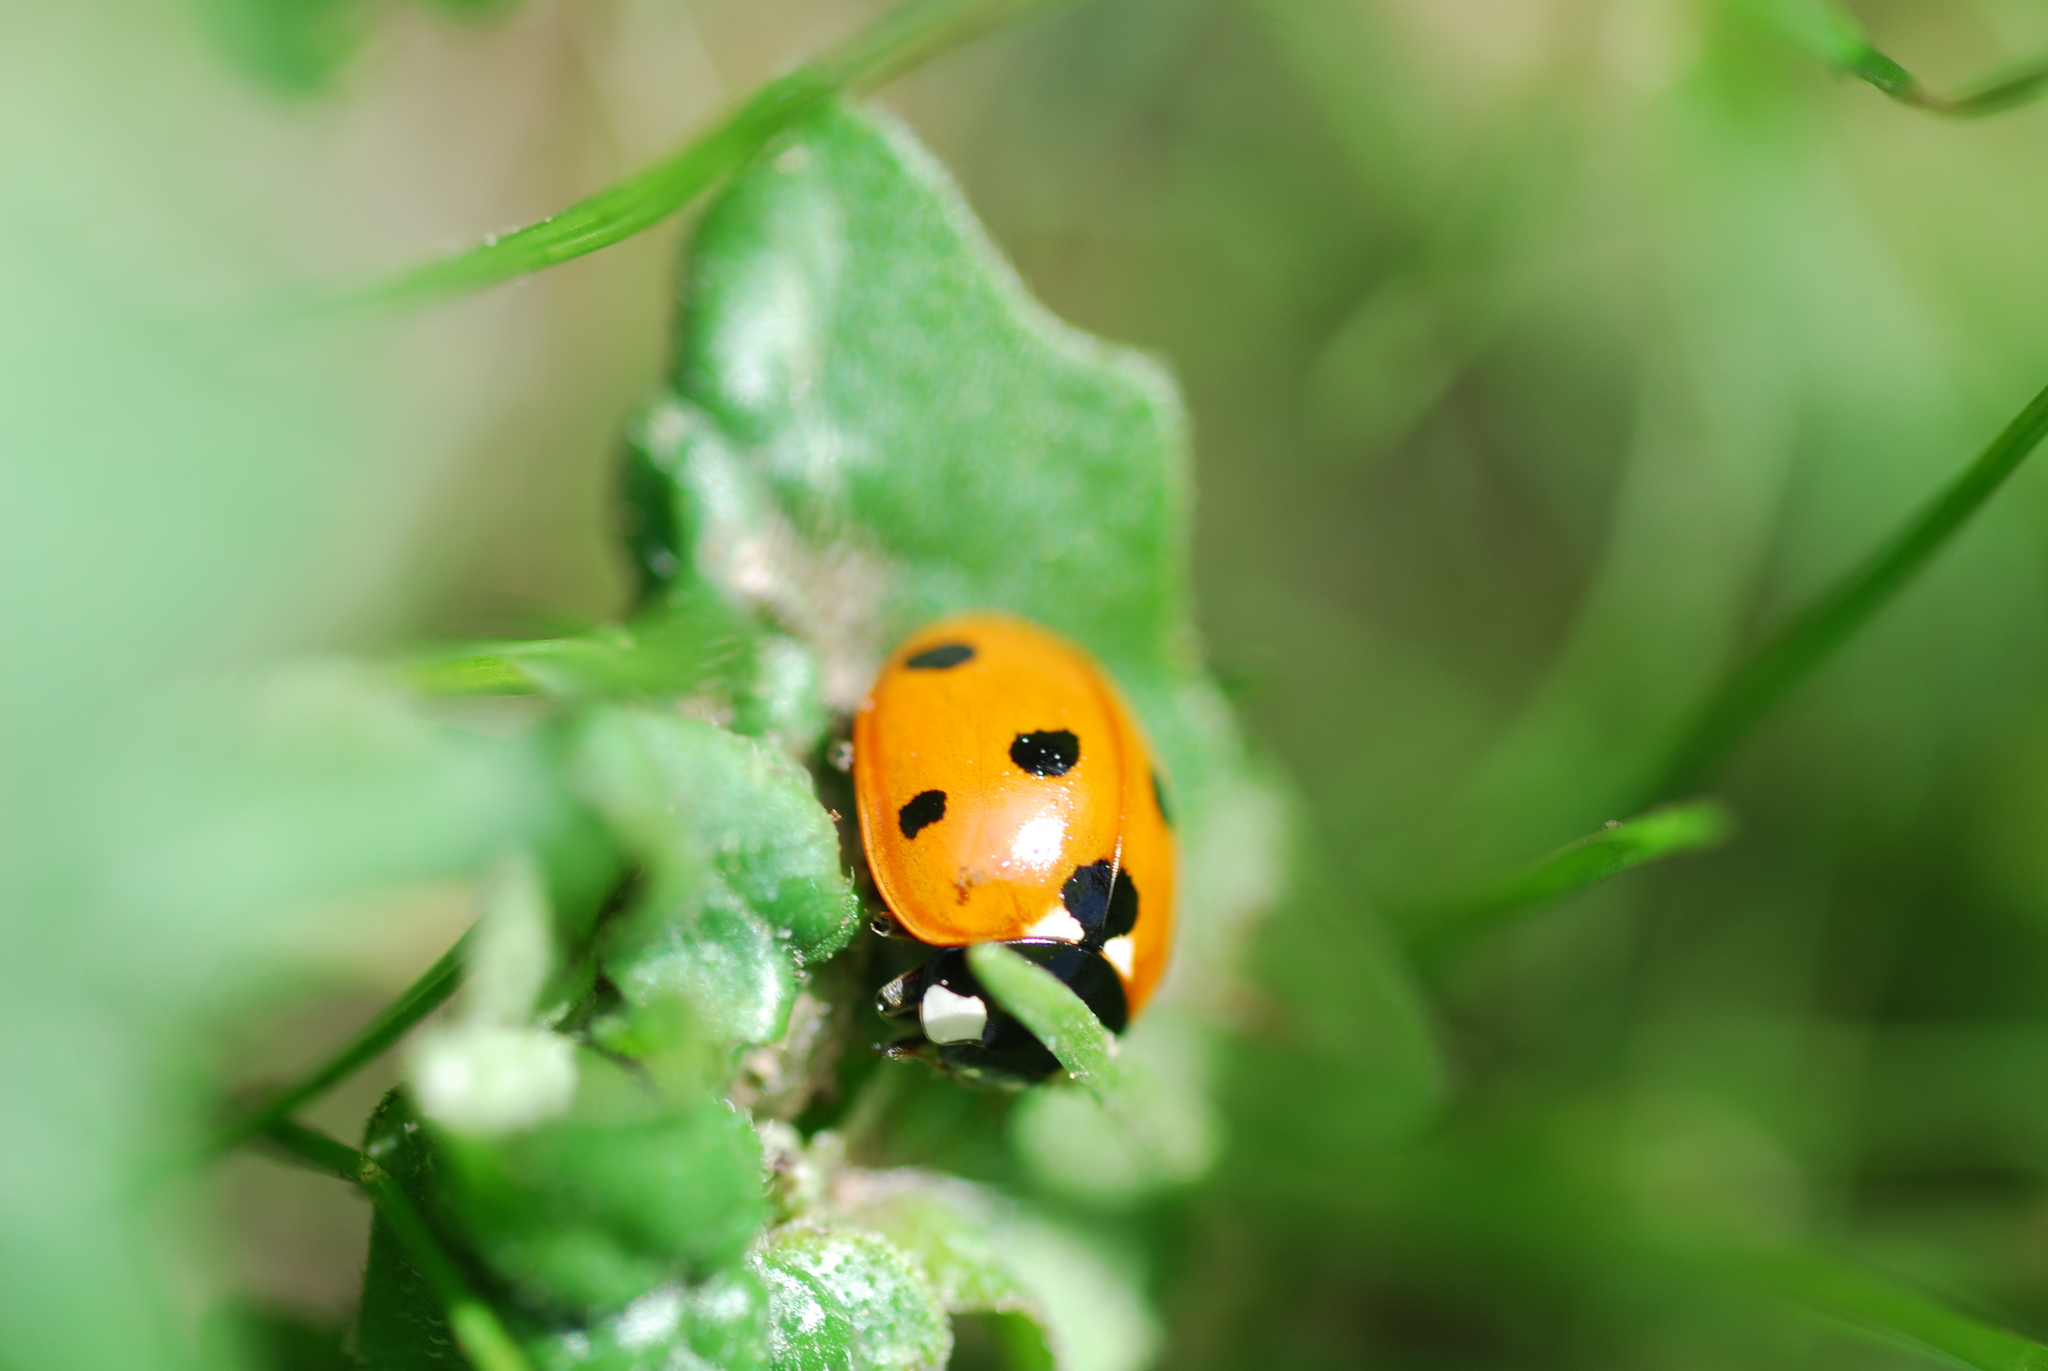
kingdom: Animalia
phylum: Arthropoda
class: Insecta
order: Coleoptera
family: Coccinellidae
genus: Coccinella
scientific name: Coccinella septempunctata
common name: Sevenspotted lady beetle
